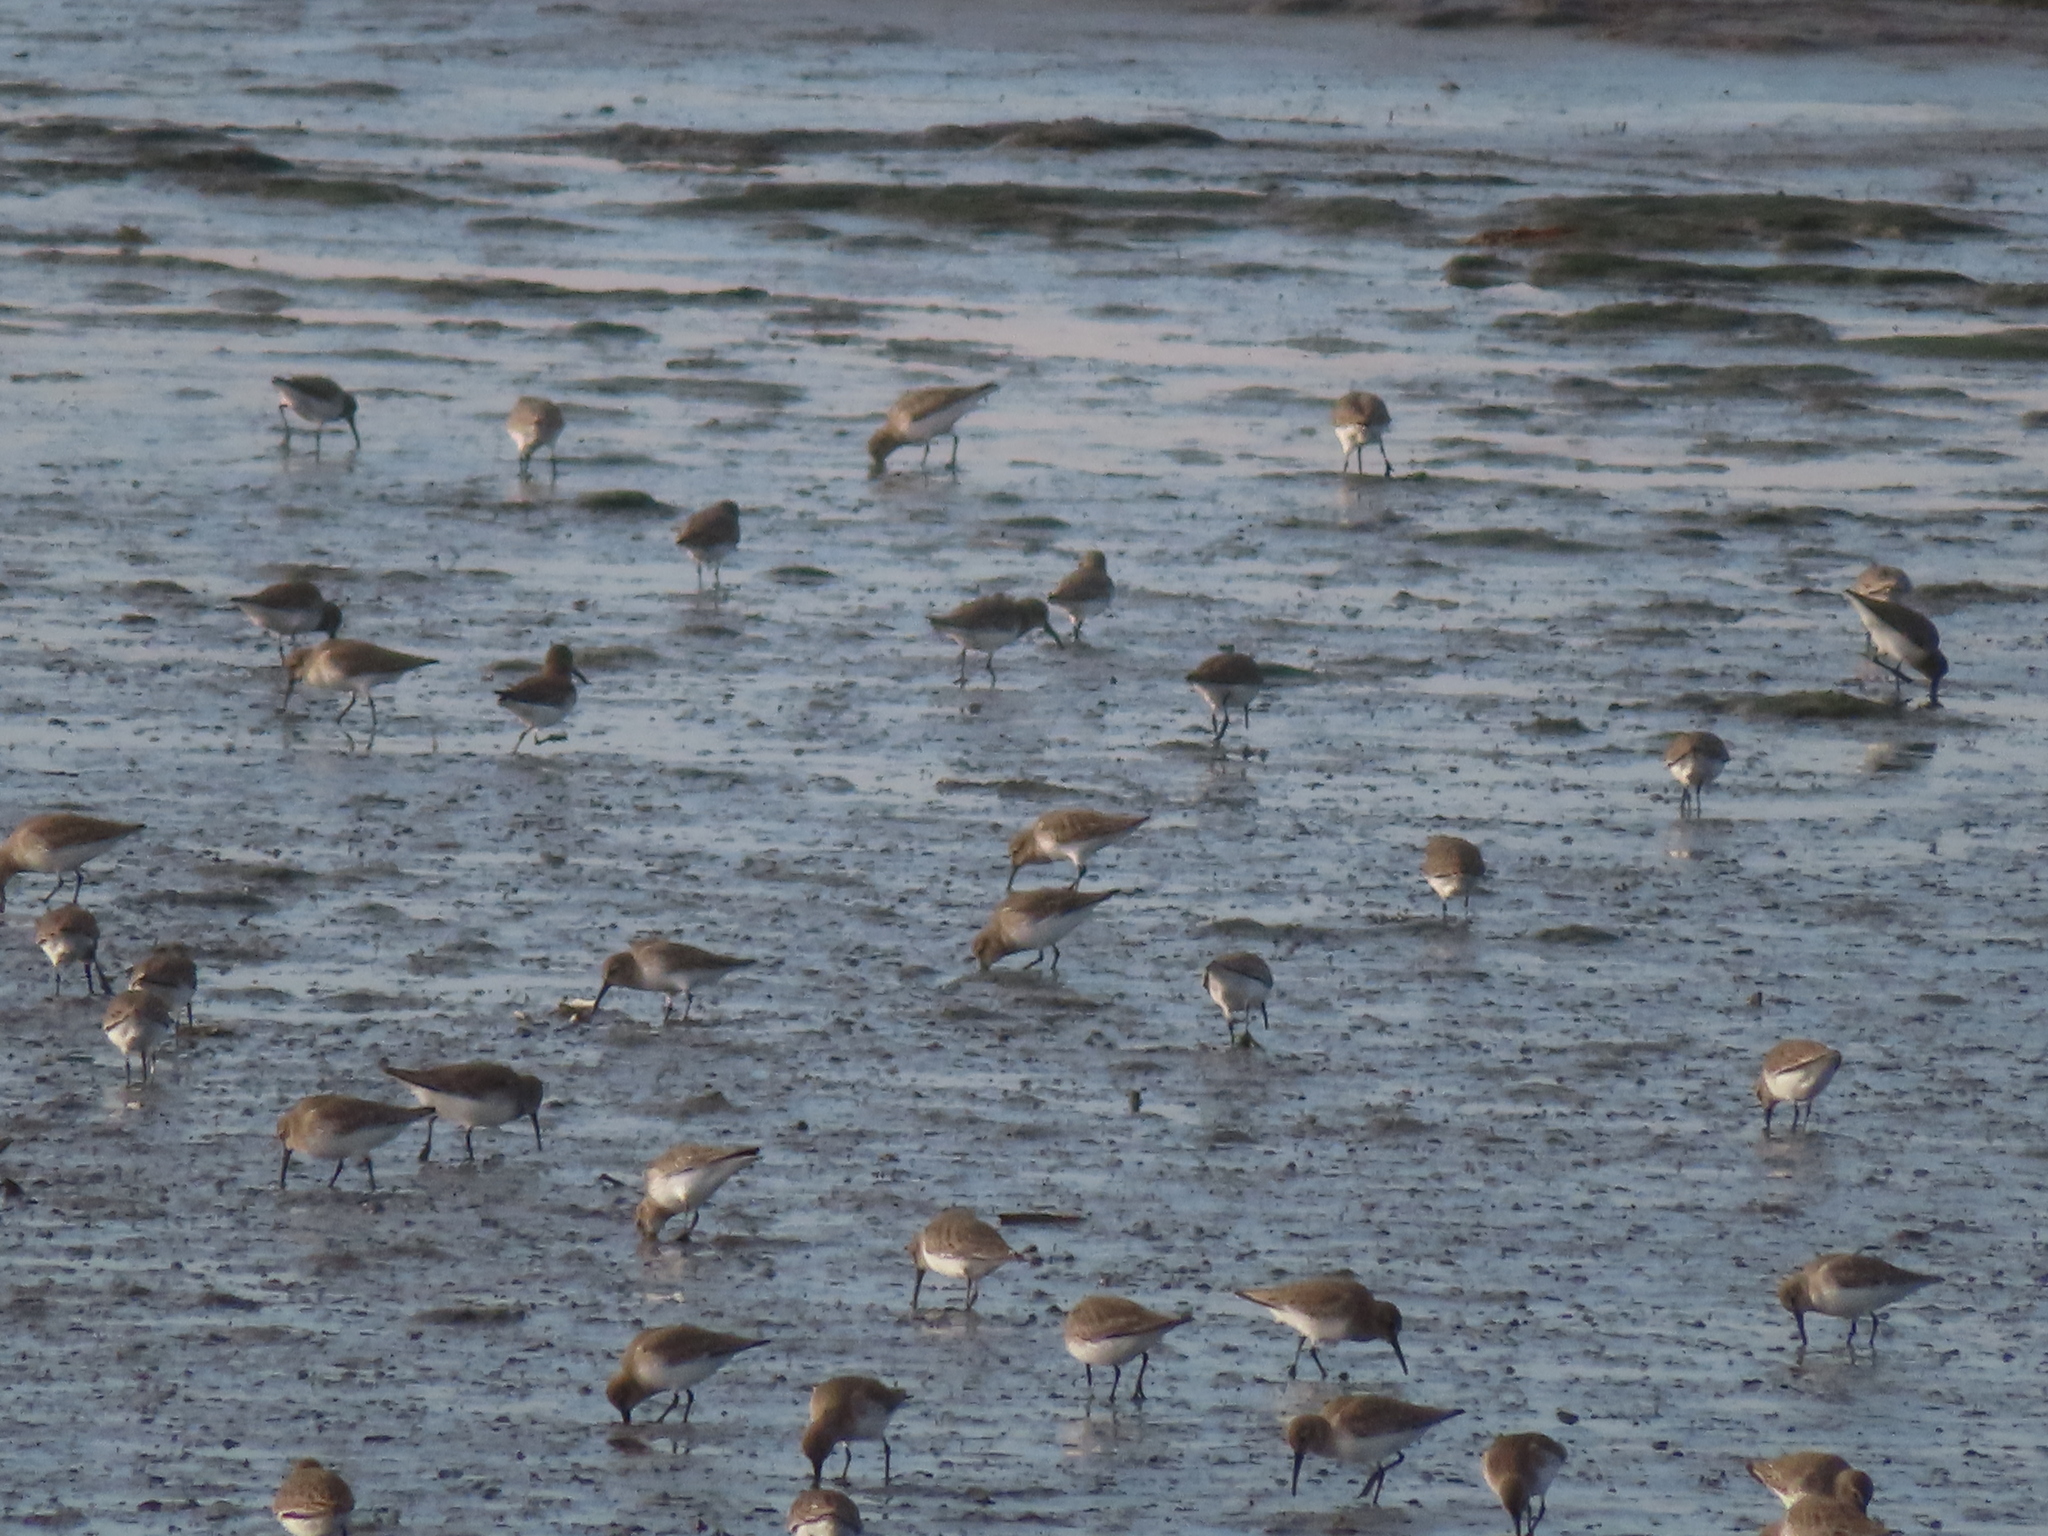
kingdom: Animalia
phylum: Chordata
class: Aves
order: Charadriiformes
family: Scolopacidae
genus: Calidris
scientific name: Calidris alpina
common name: Dunlin
